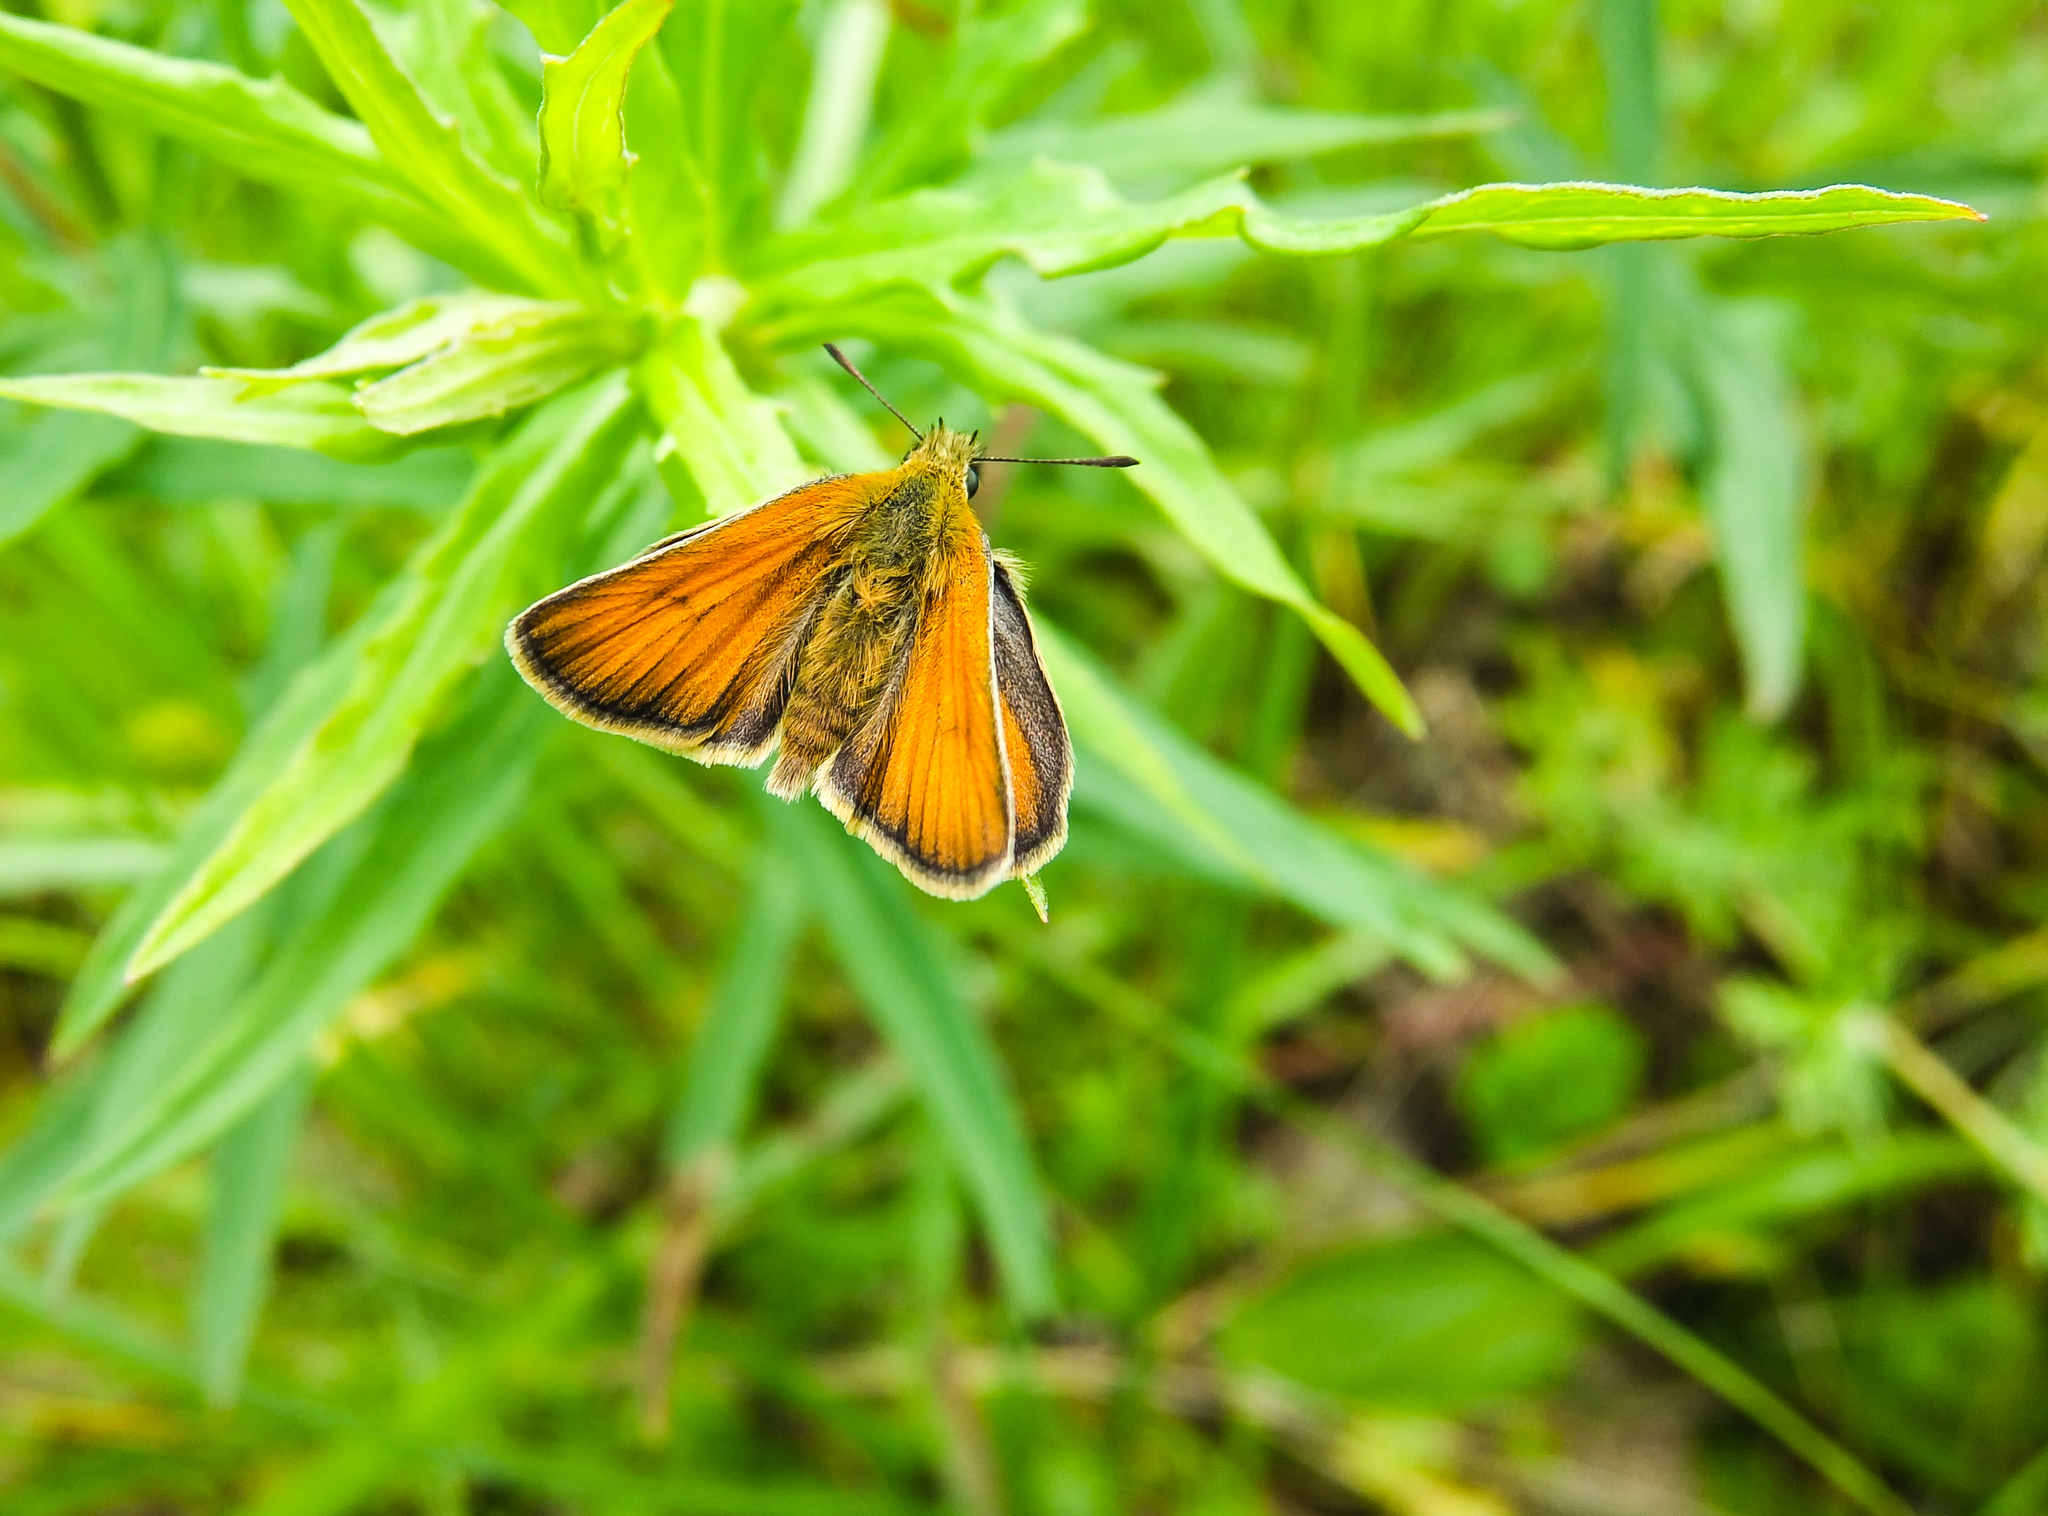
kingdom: Animalia
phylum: Arthropoda
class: Insecta
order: Lepidoptera
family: Hesperiidae
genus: Thymelicus
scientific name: Thymelicus lineola
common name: Essex skipper
